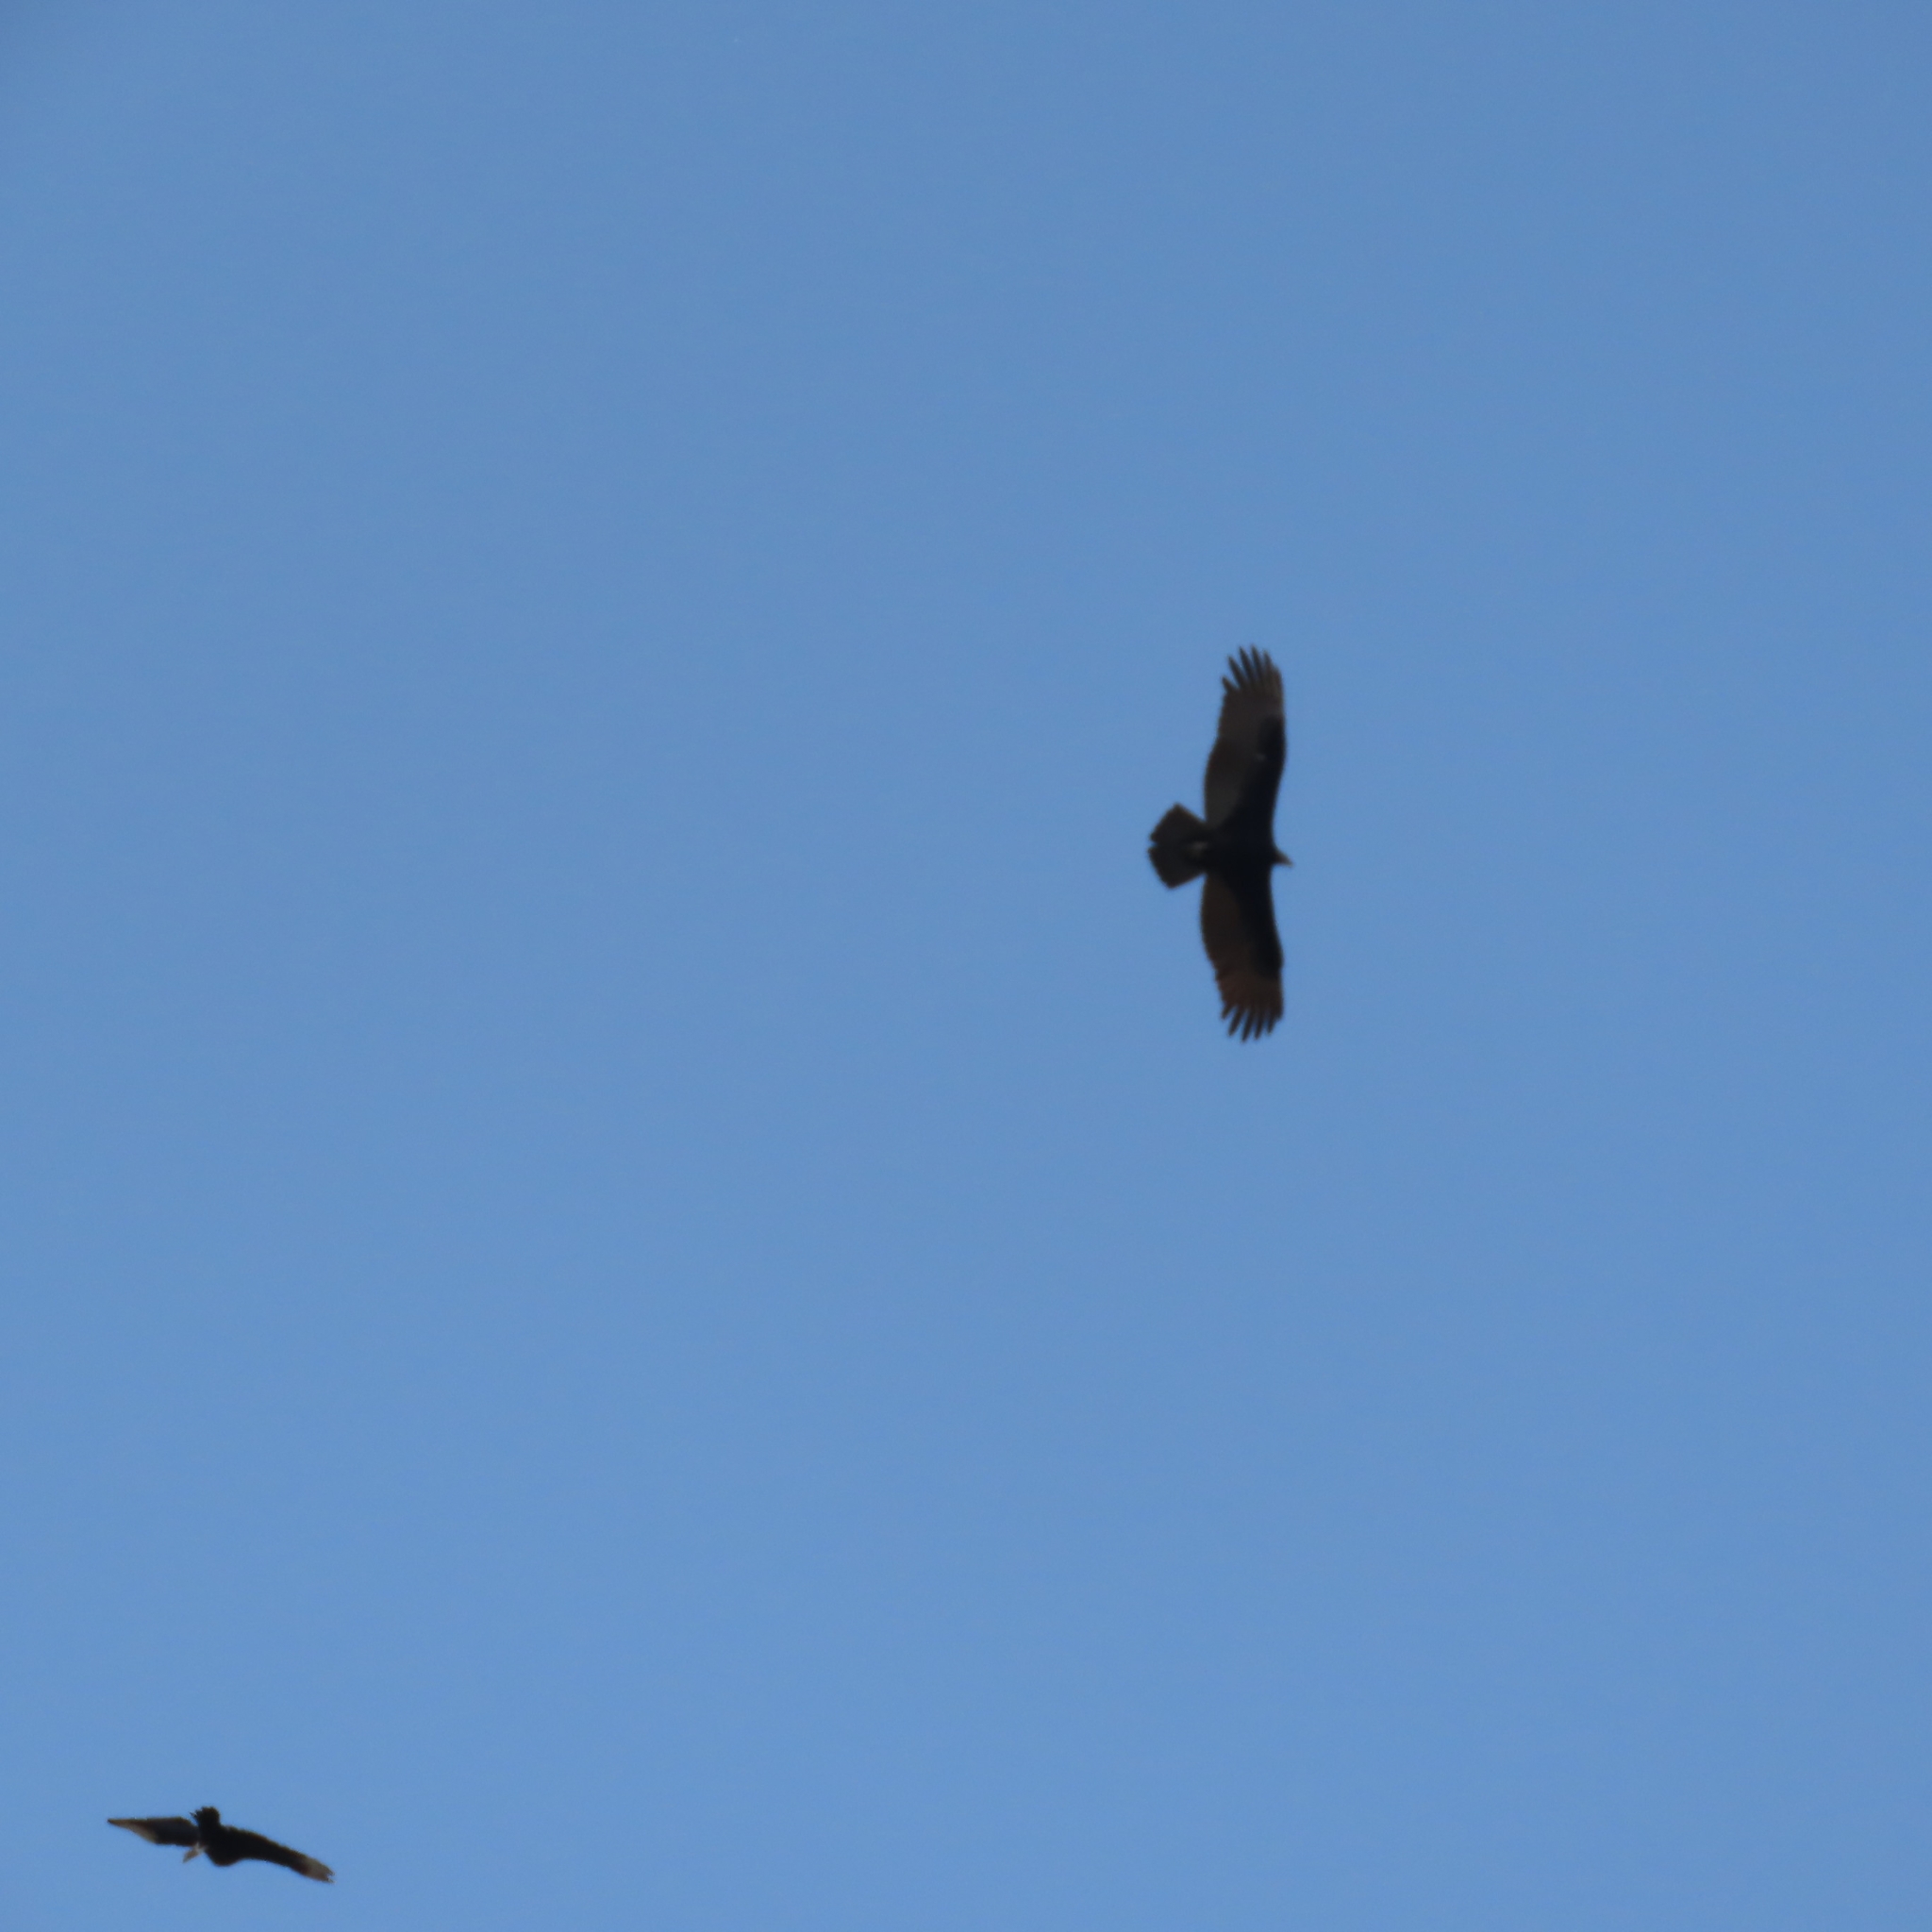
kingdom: Animalia
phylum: Chordata
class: Aves
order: Accipitriformes
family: Cathartidae
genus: Cathartes
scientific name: Cathartes aura
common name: Turkey vulture
